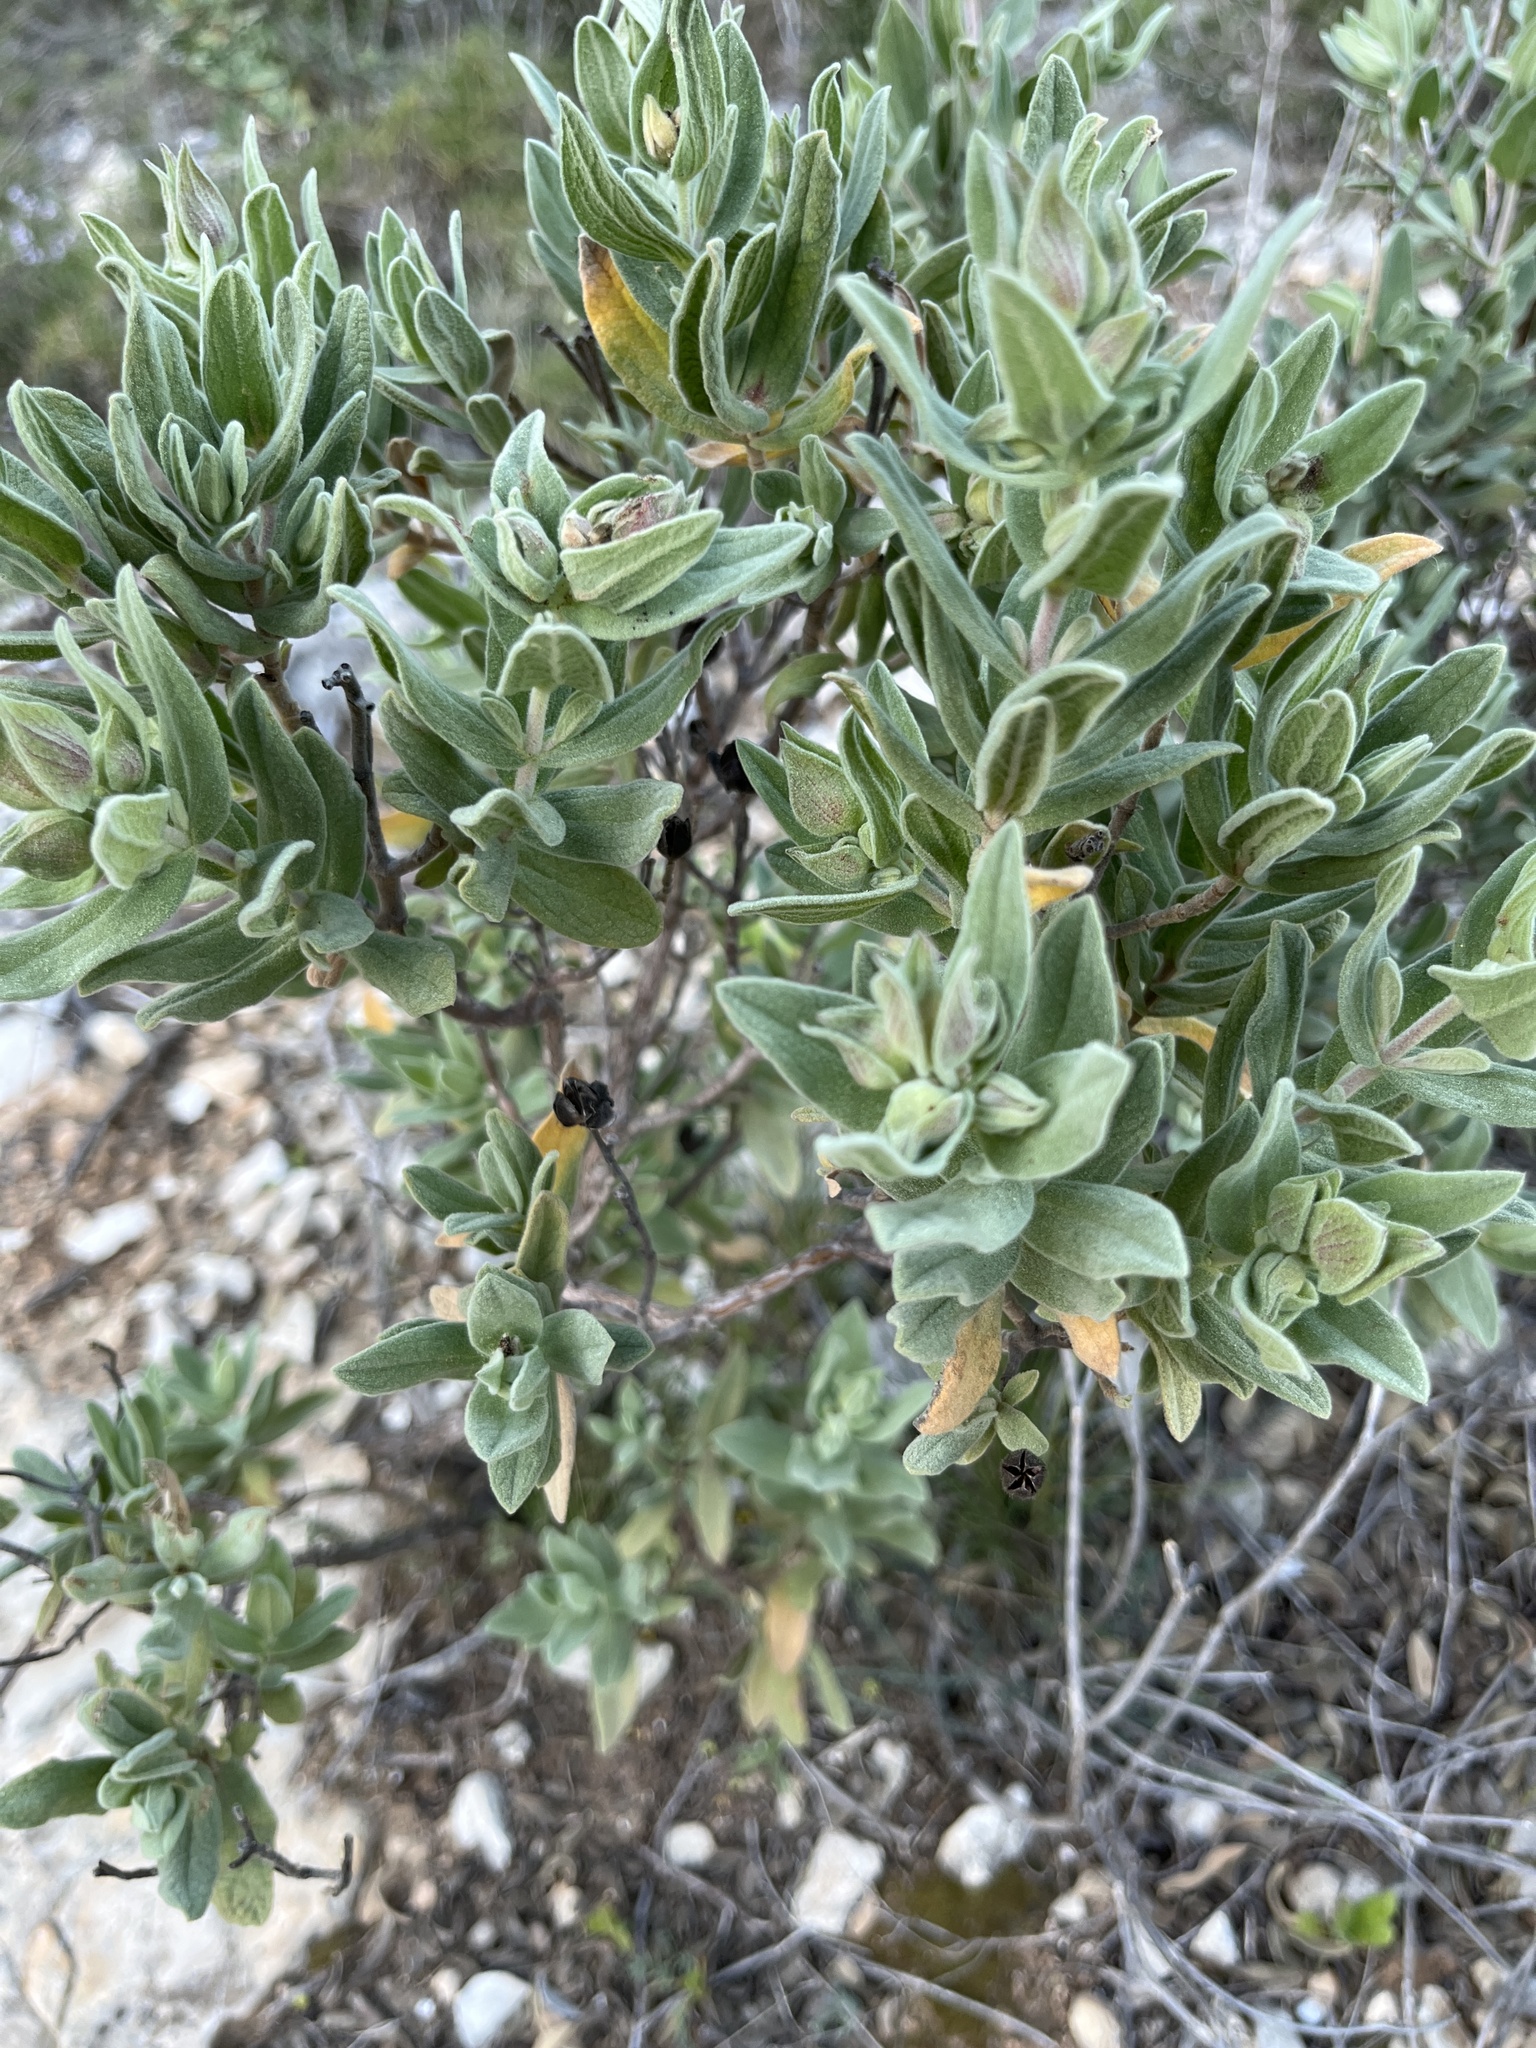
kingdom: Plantae
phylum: Tracheophyta
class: Magnoliopsida
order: Malvales
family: Cistaceae
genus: Cistus
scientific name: Cistus albidus
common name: White-leaf rock-rose
